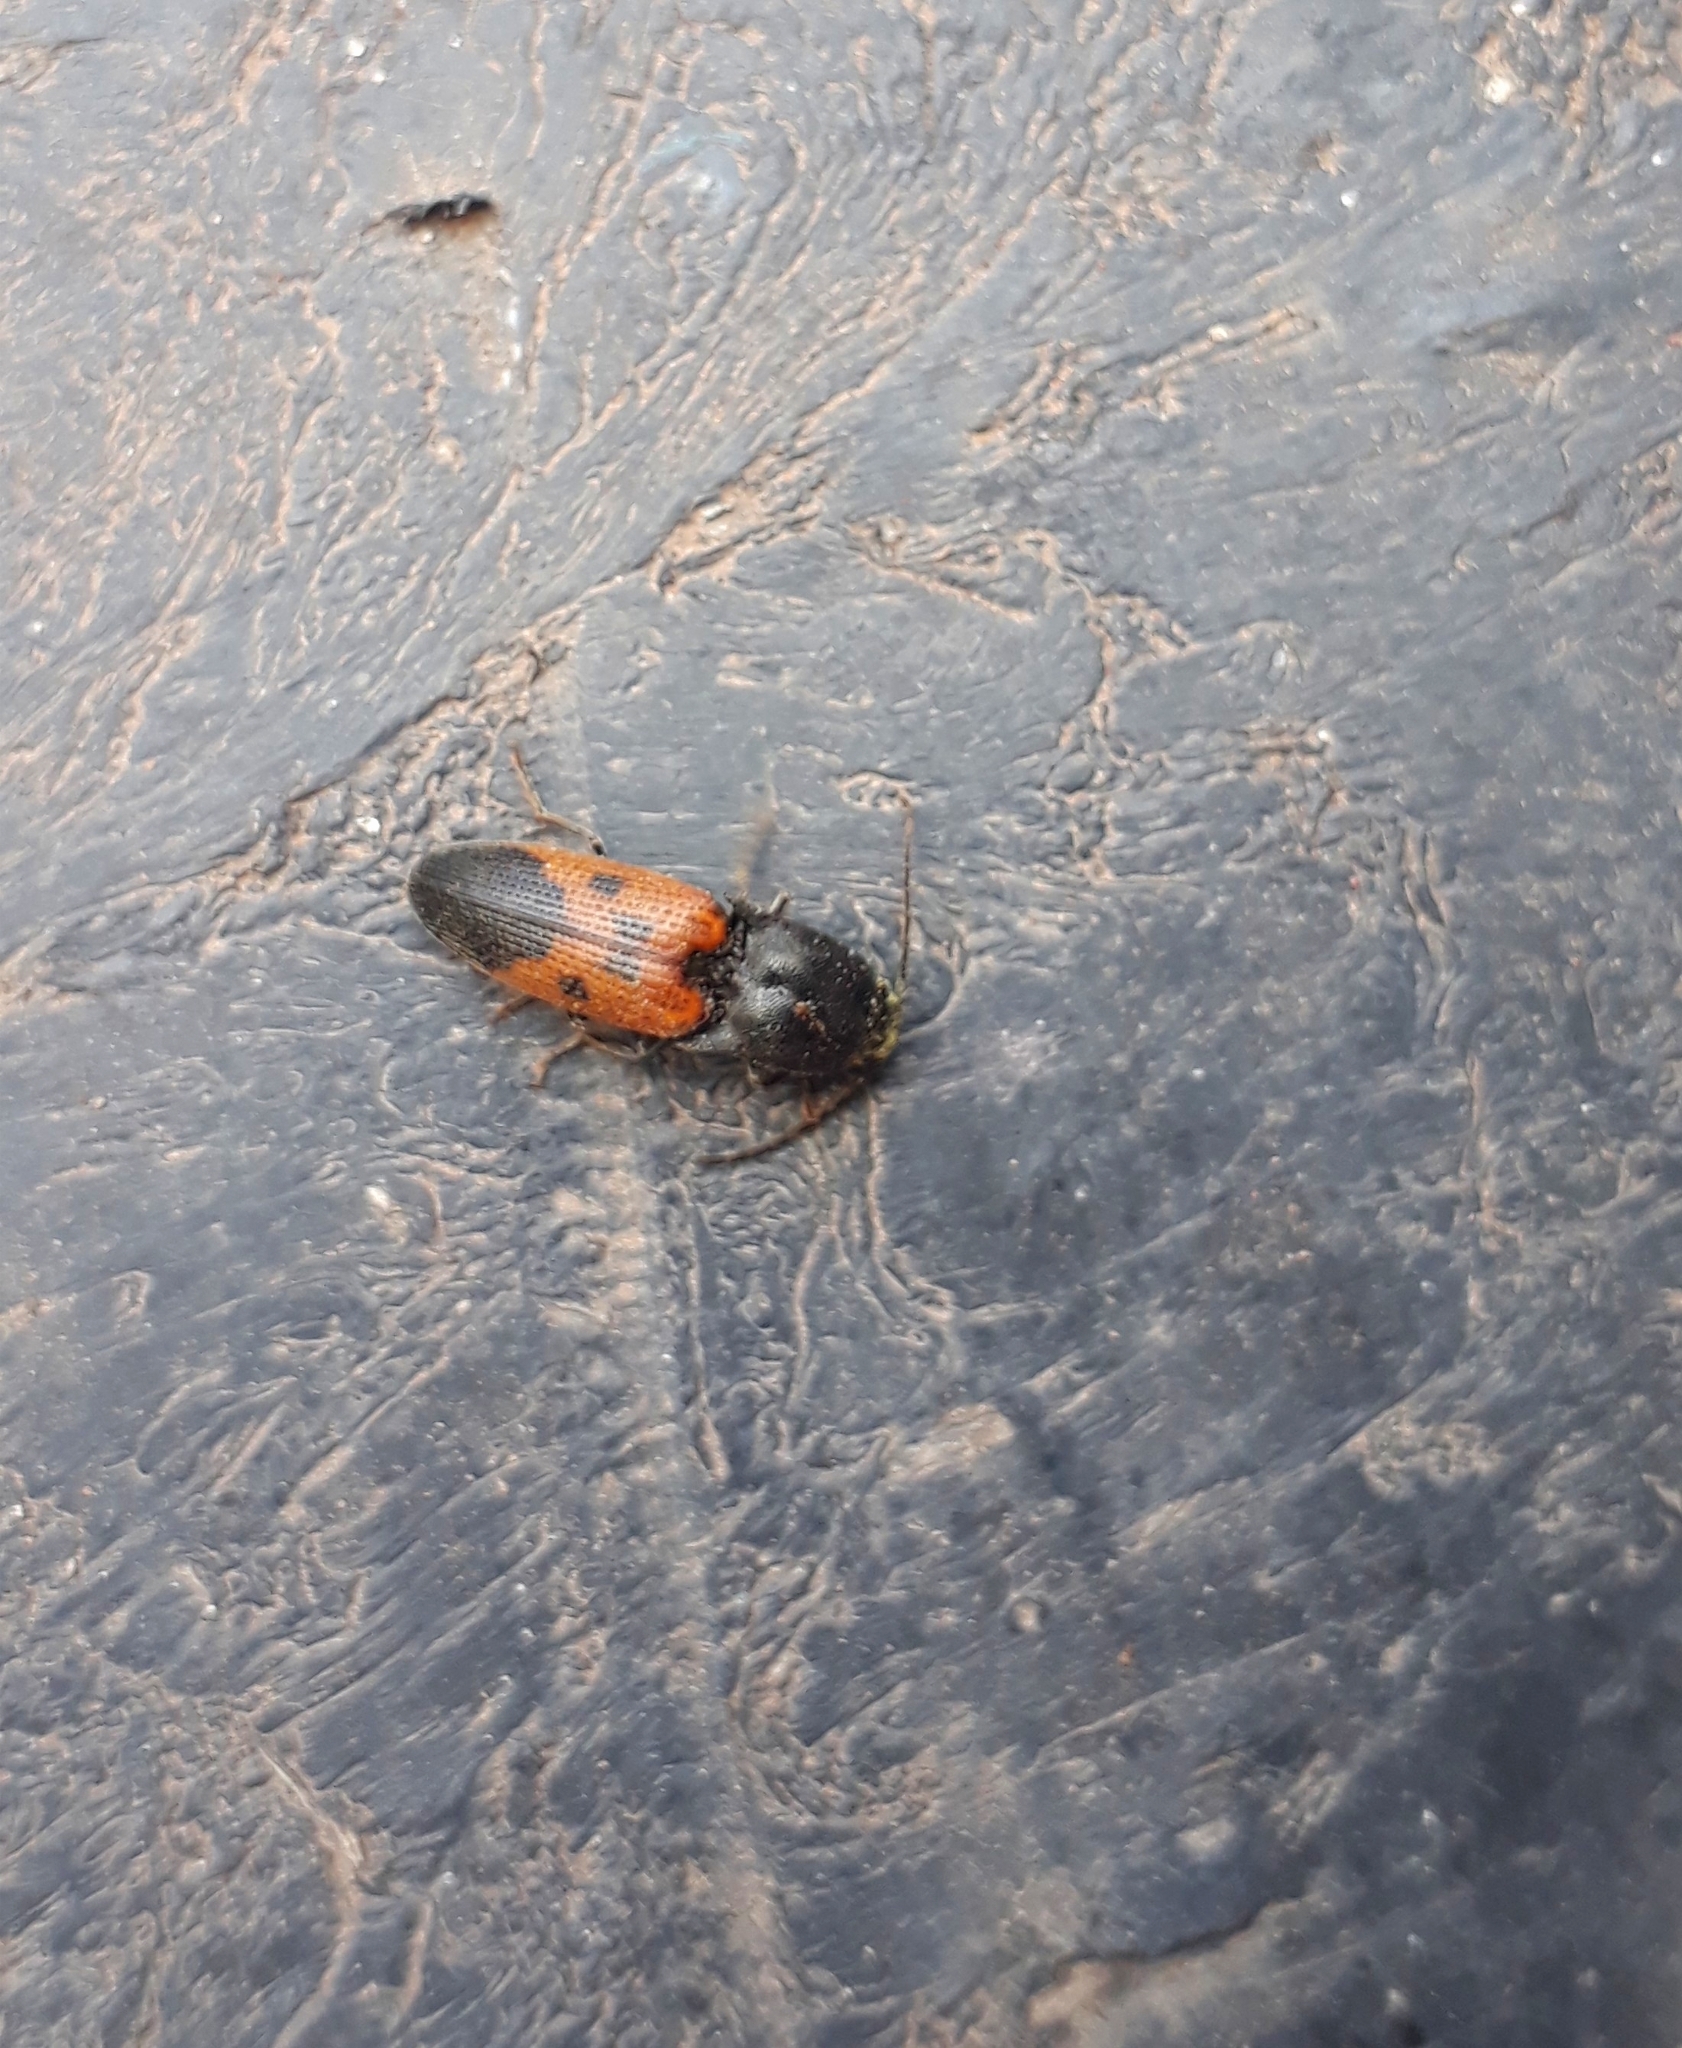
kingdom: Animalia
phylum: Arthropoda
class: Insecta
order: Coleoptera
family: Elateridae
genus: Monocrepidius
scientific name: Monocrepidius
